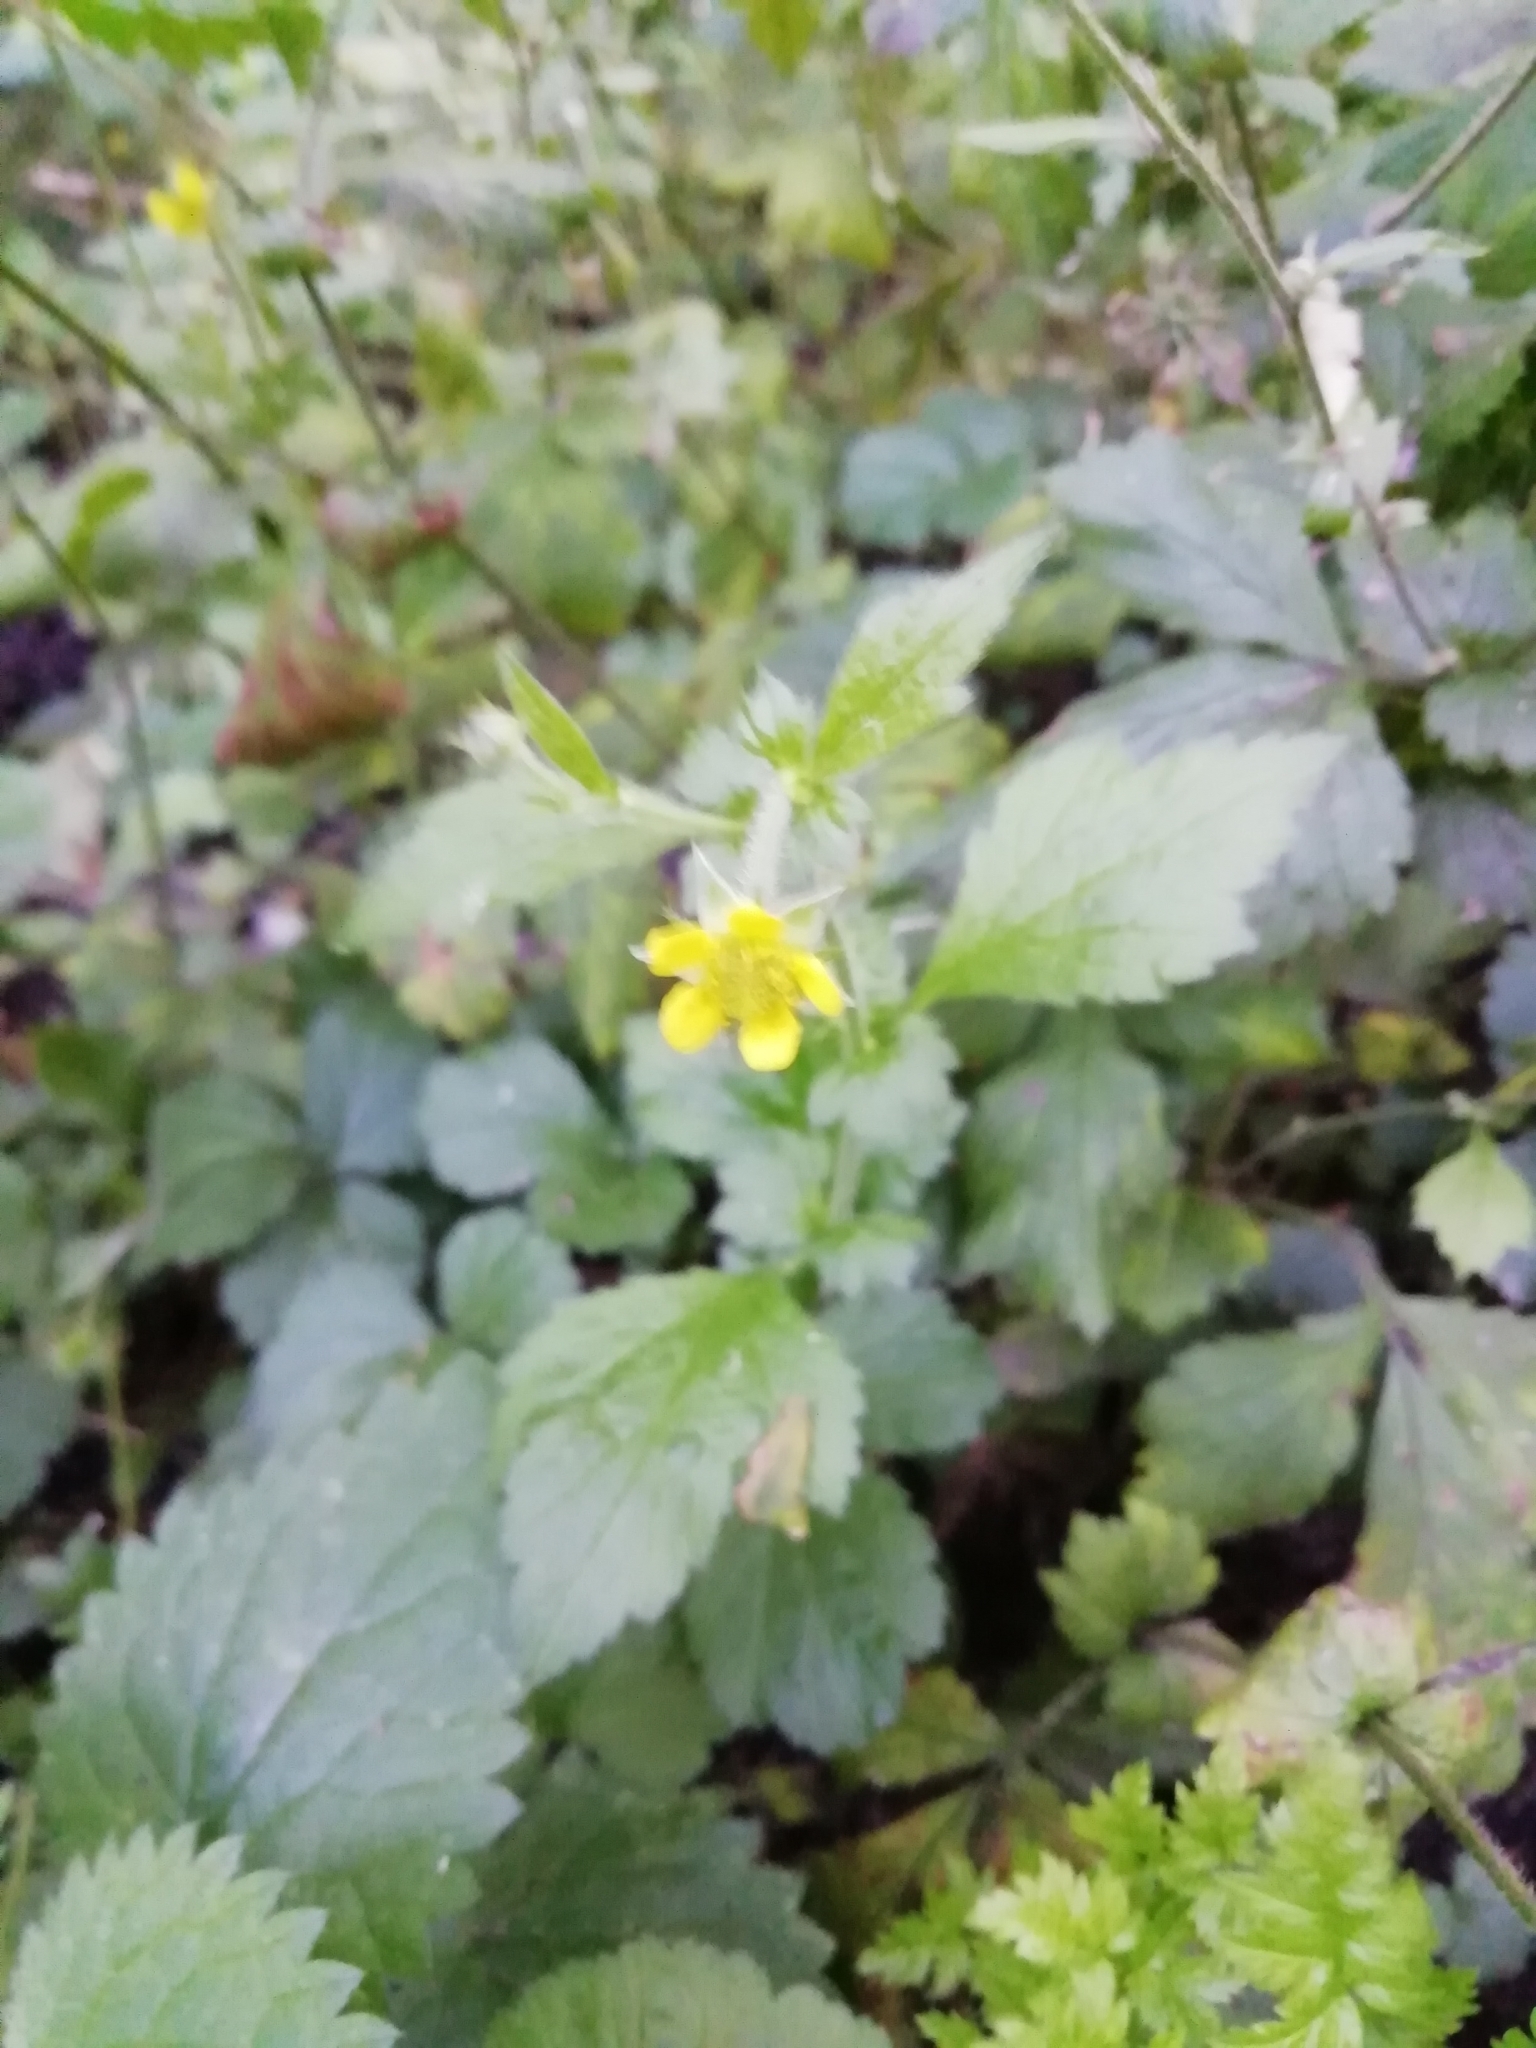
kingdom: Plantae
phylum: Tracheophyta
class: Magnoliopsida
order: Rosales
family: Rosaceae
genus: Geum
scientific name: Geum urbanum
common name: Wood avens
